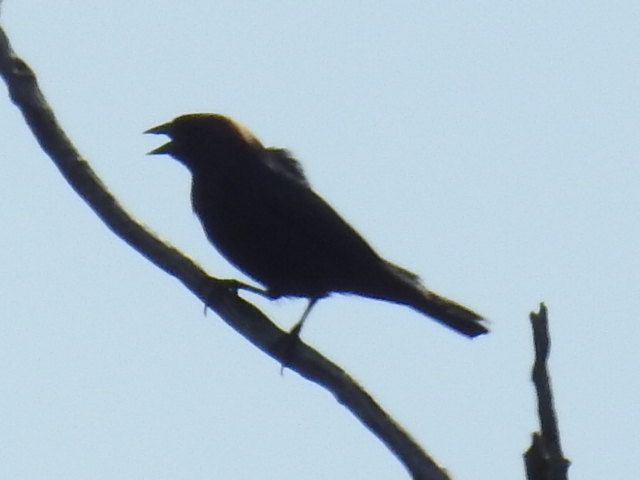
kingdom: Animalia
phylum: Chordata
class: Aves
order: Passeriformes
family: Icteridae
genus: Molothrus
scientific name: Molothrus ater
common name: Brown-headed cowbird
